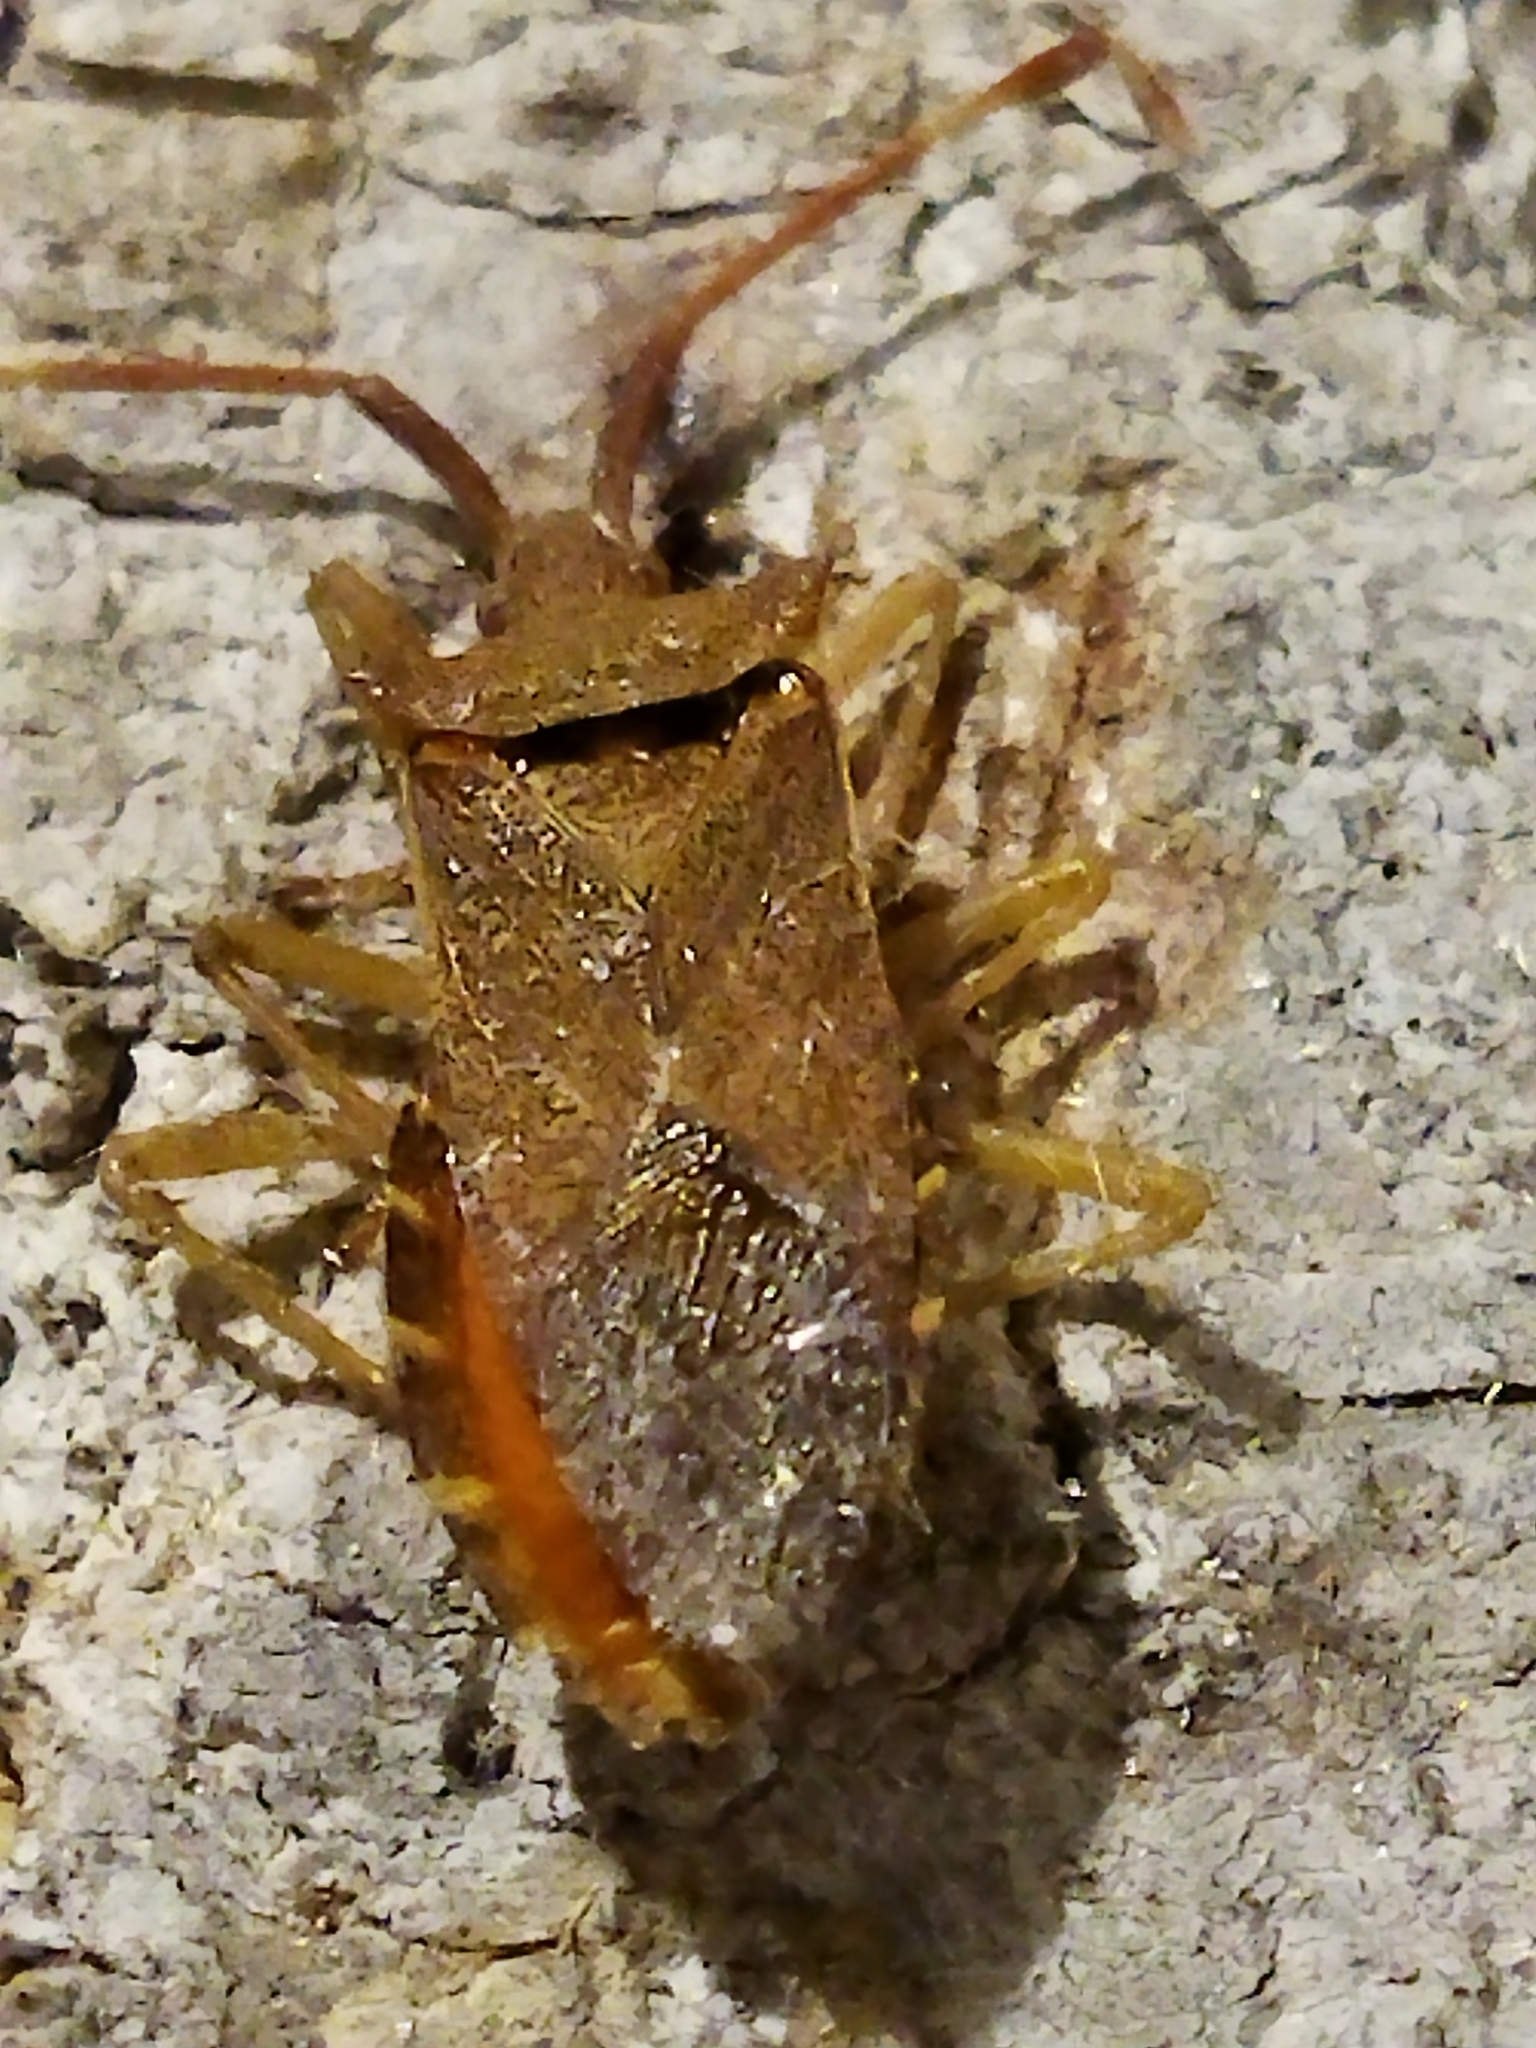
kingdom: Animalia
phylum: Arthropoda
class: Insecta
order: Hemiptera
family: Coreidae
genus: Gonocerus
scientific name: Gonocerus acuteangulatus
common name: Box bug
